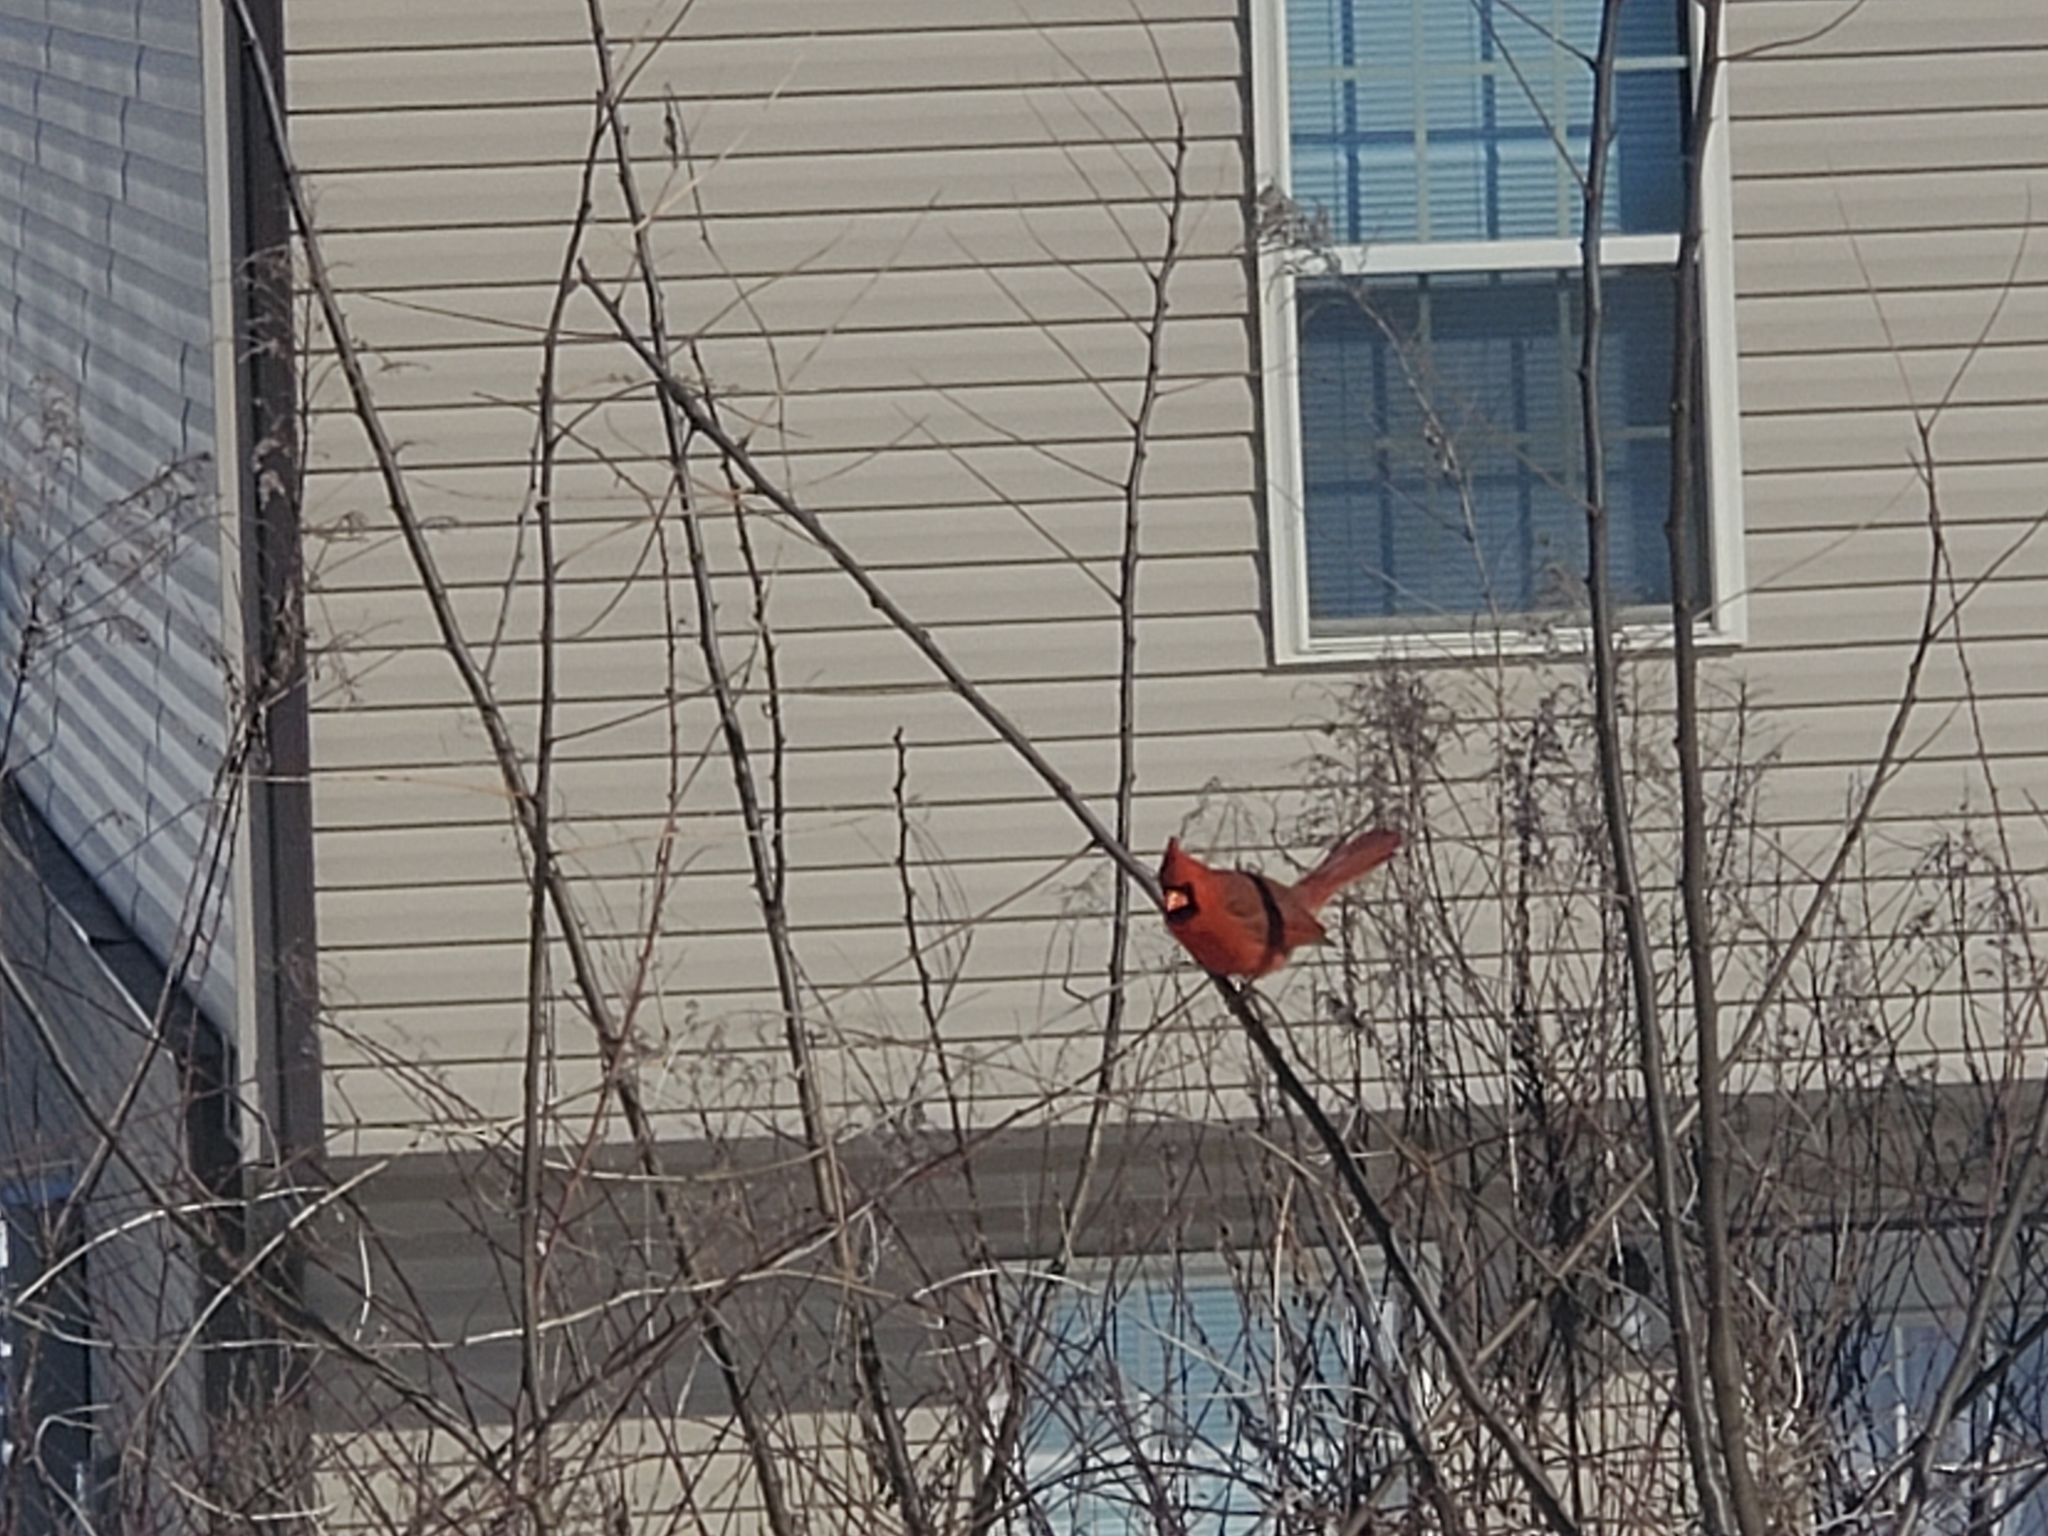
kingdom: Animalia
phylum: Chordata
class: Aves
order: Passeriformes
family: Cardinalidae
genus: Cardinalis
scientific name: Cardinalis cardinalis
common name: Northern cardinal
